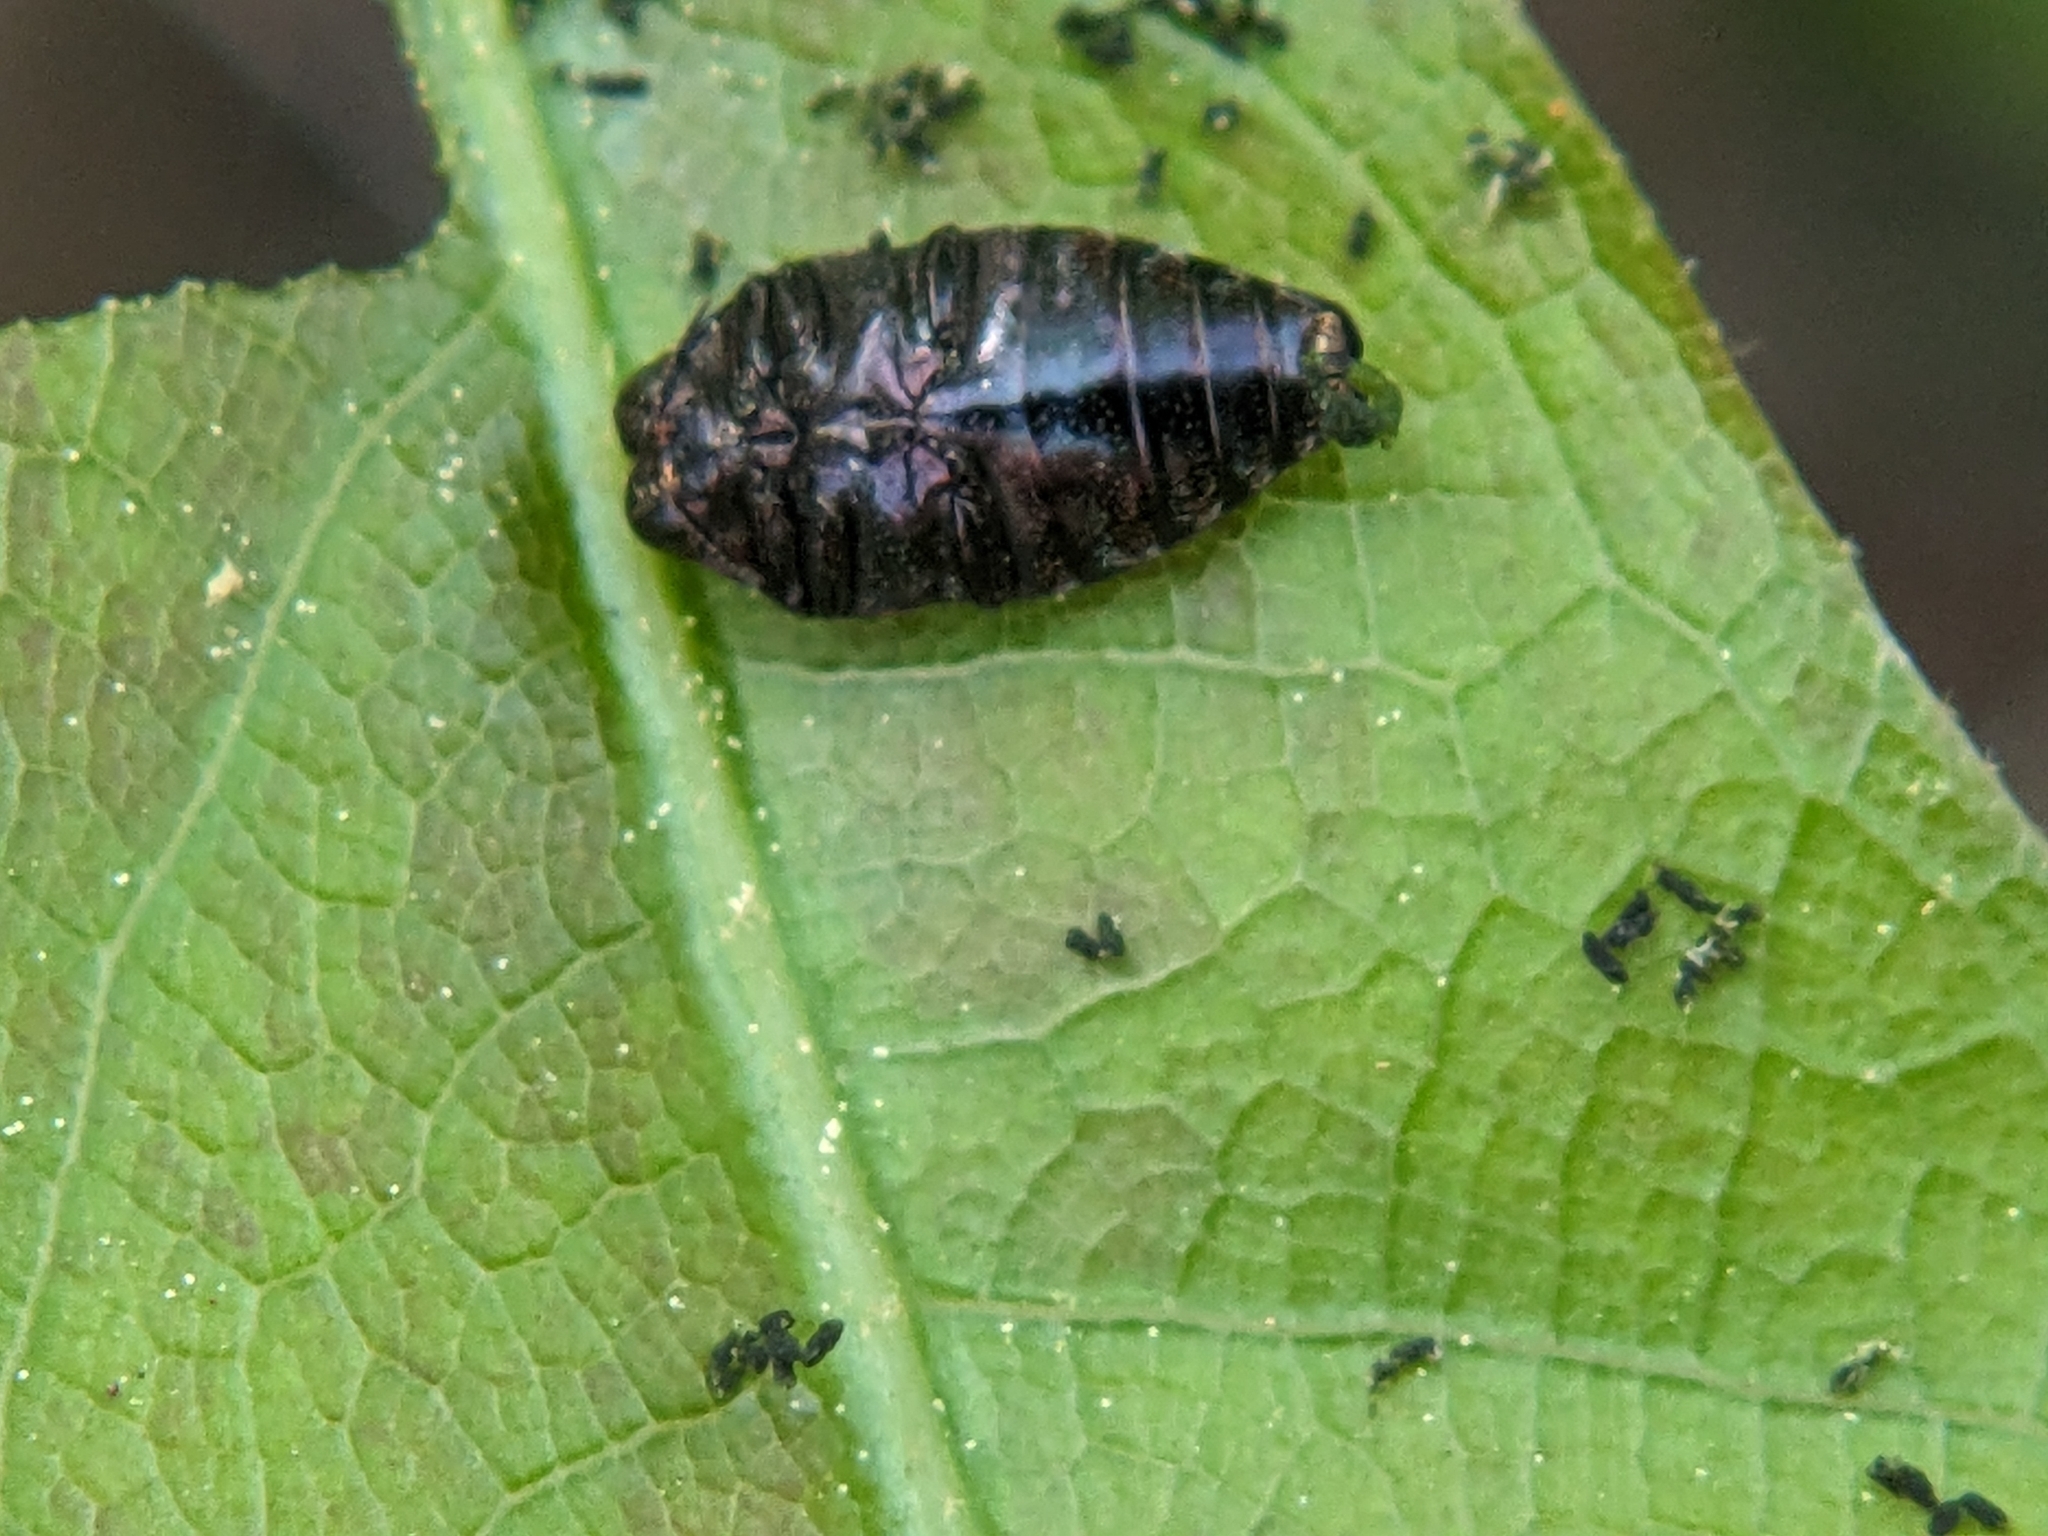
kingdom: Animalia
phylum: Arthropoda
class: Insecta
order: Coleoptera
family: Buprestidae
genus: Brachys
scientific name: Brachys ovatus
